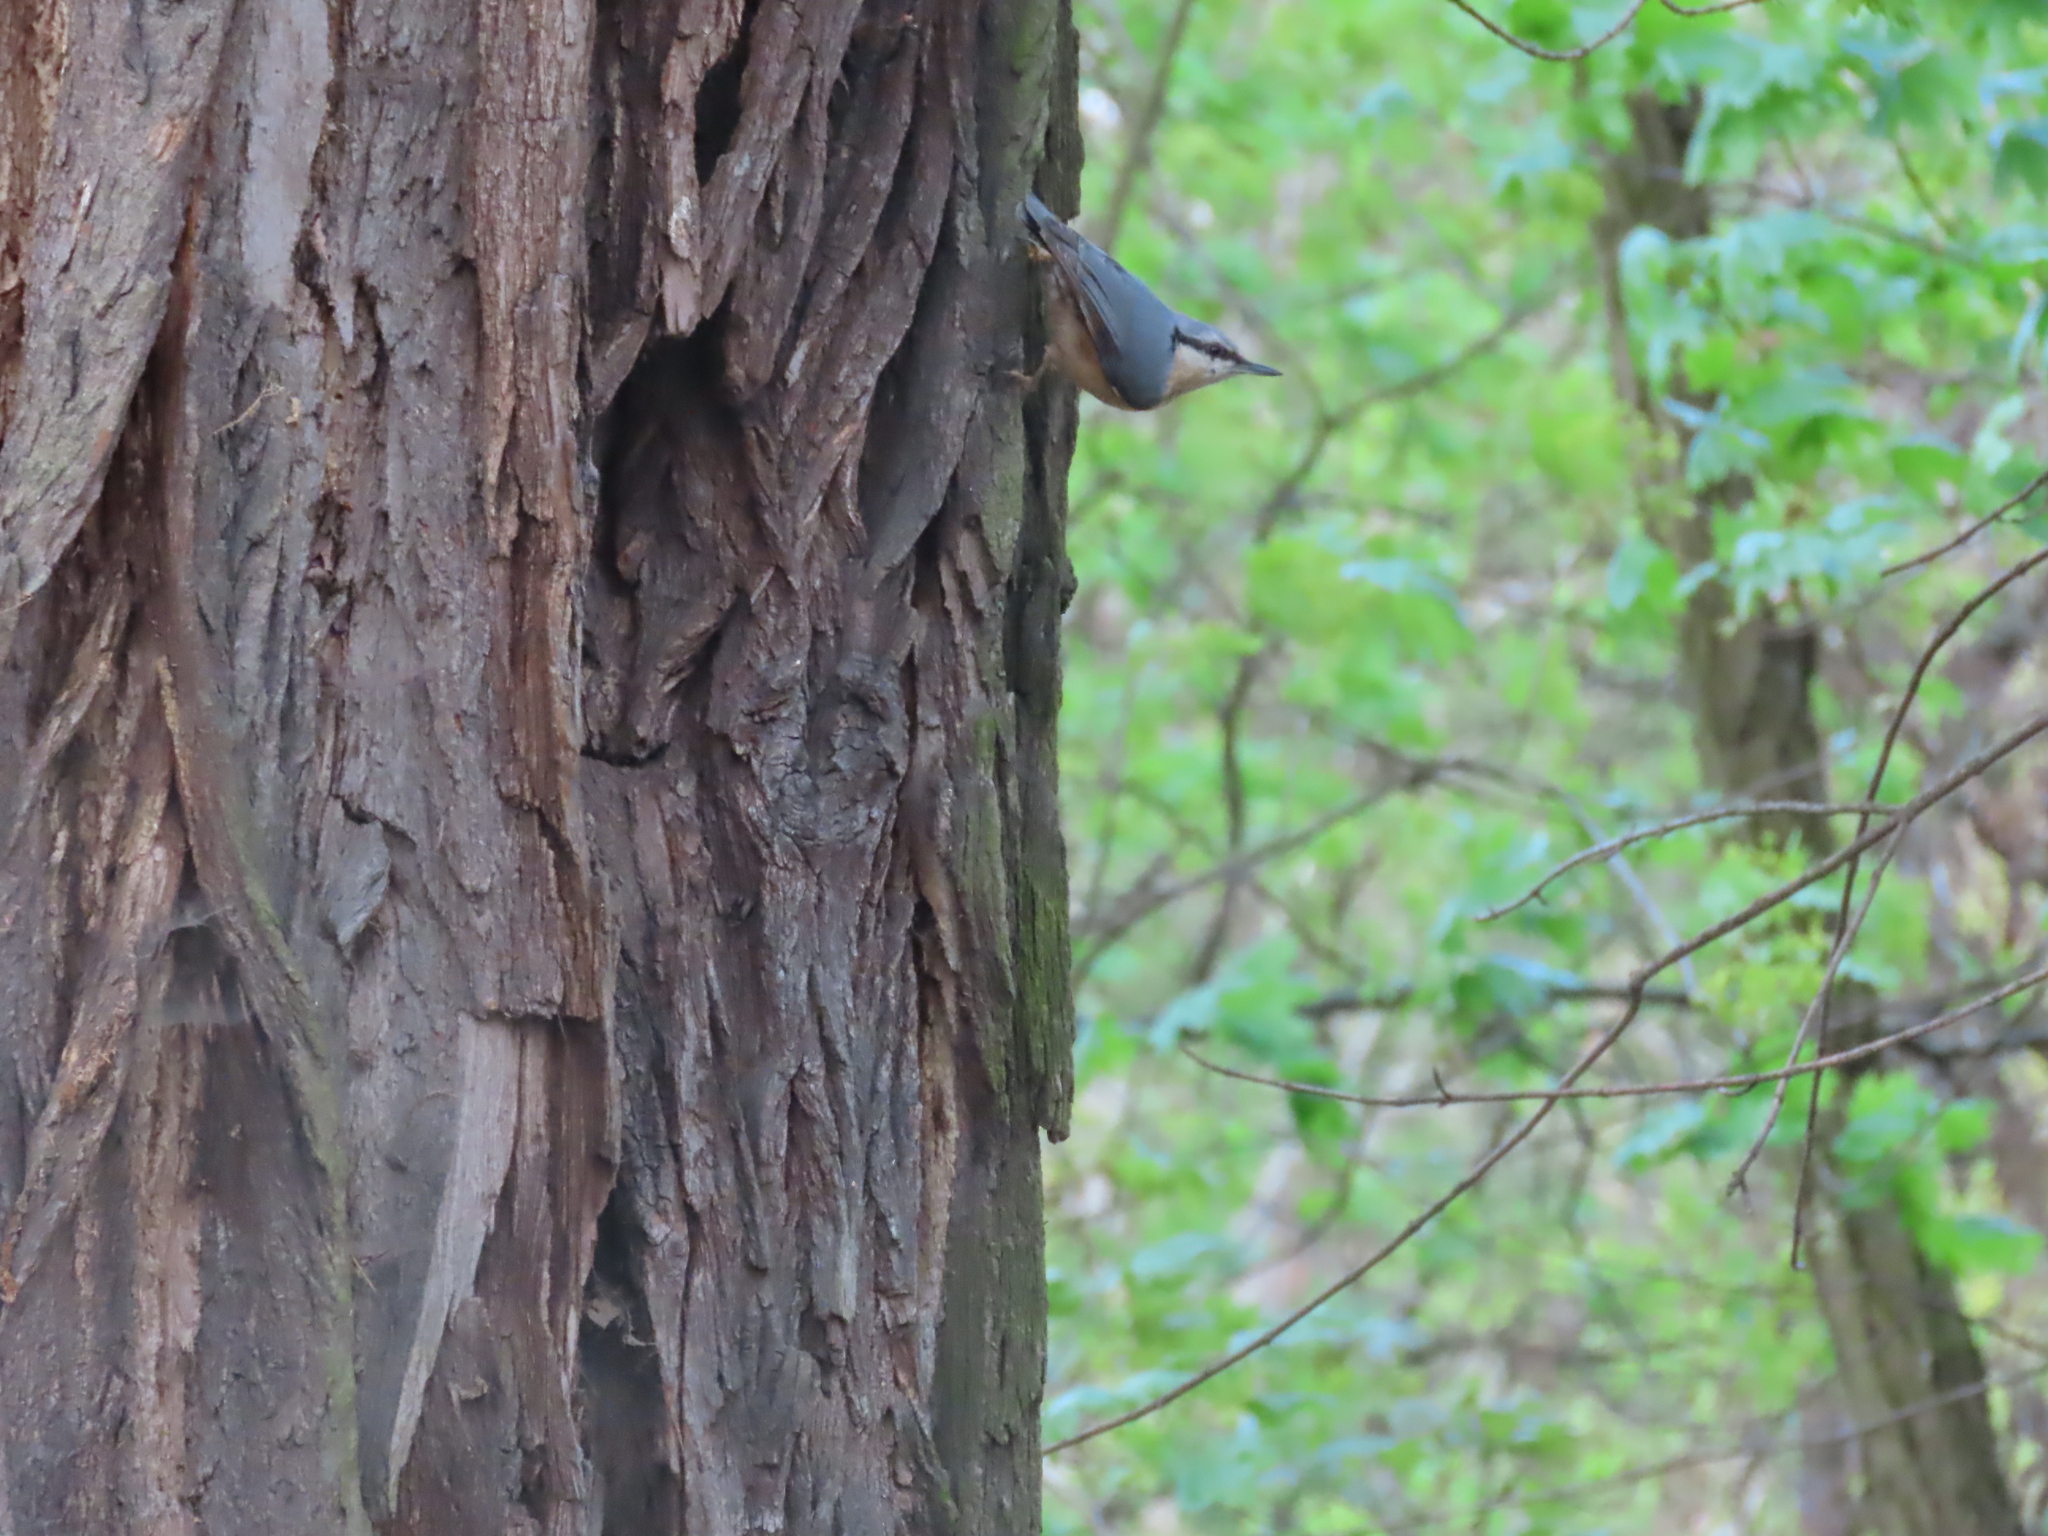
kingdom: Animalia
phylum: Chordata
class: Aves
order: Passeriformes
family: Sittidae
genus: Sitta
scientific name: Sitta europaea
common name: Eurasian nuthatch
